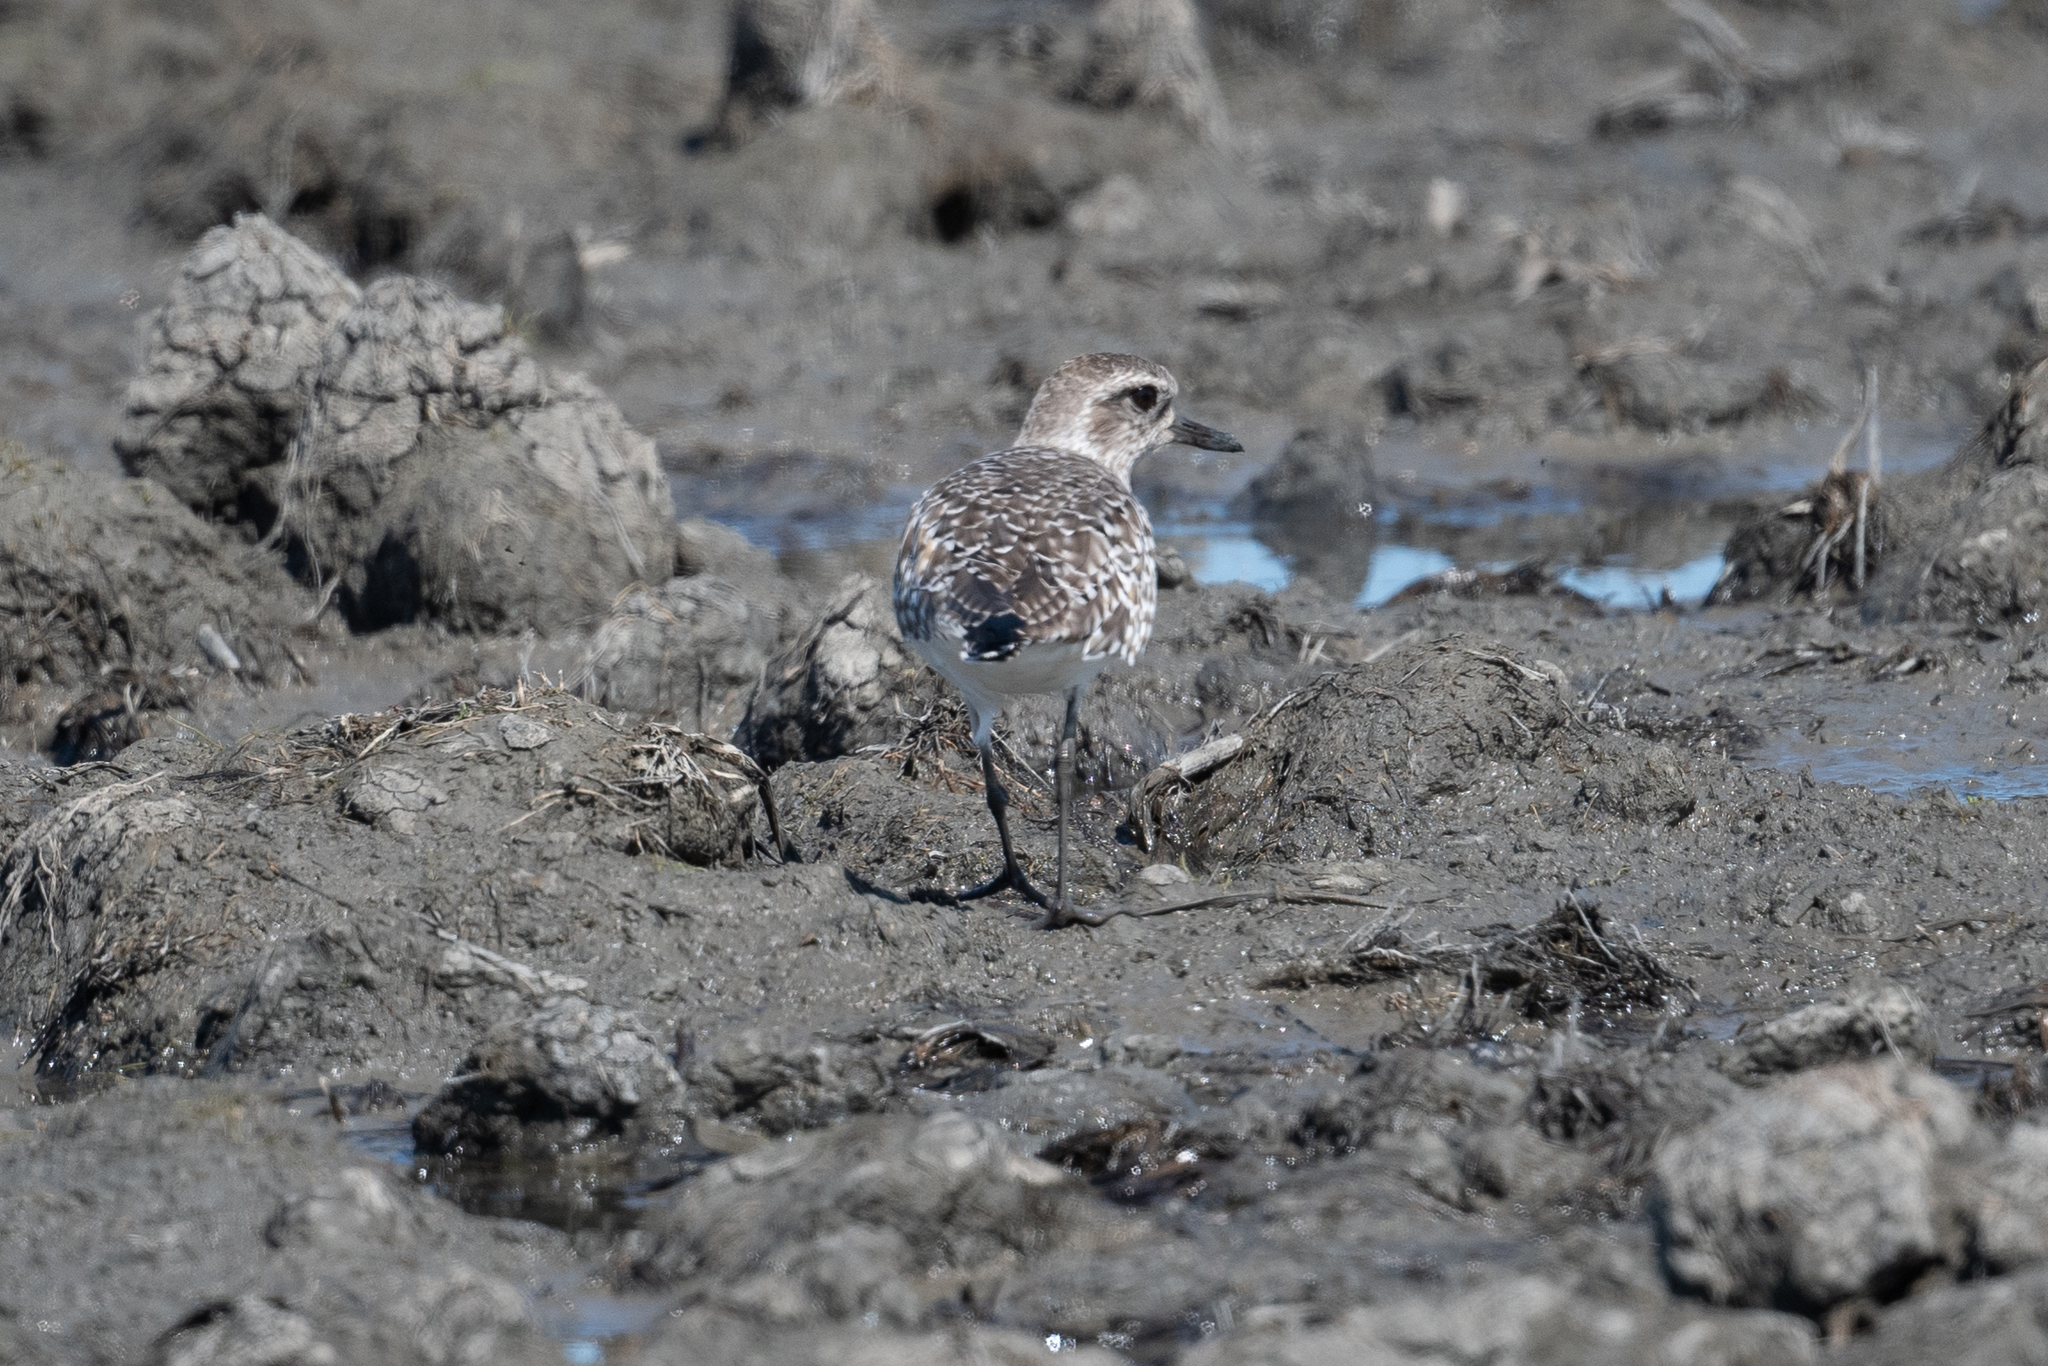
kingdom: Animalia
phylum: Chordata
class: Aves
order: Charadriiformes
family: Charadriidae
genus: Pluvialis
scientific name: Pluvialis squatarola
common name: Grey plover
